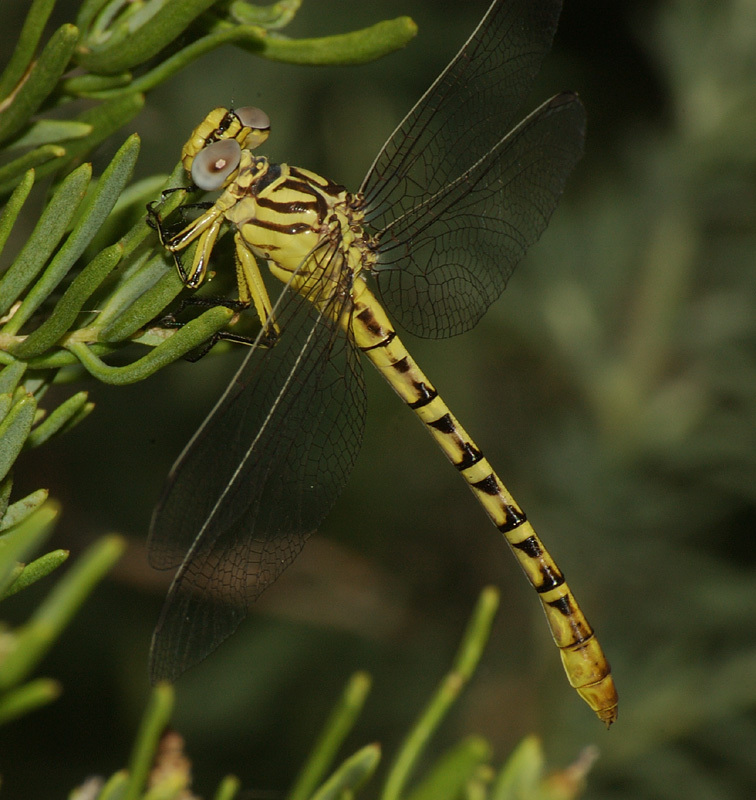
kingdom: Animalia
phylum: Arthropoda
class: Insecta
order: Odonata
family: Gomphidae
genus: Stylurus
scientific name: Stylurus intricatus
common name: Brimstone clubtail
